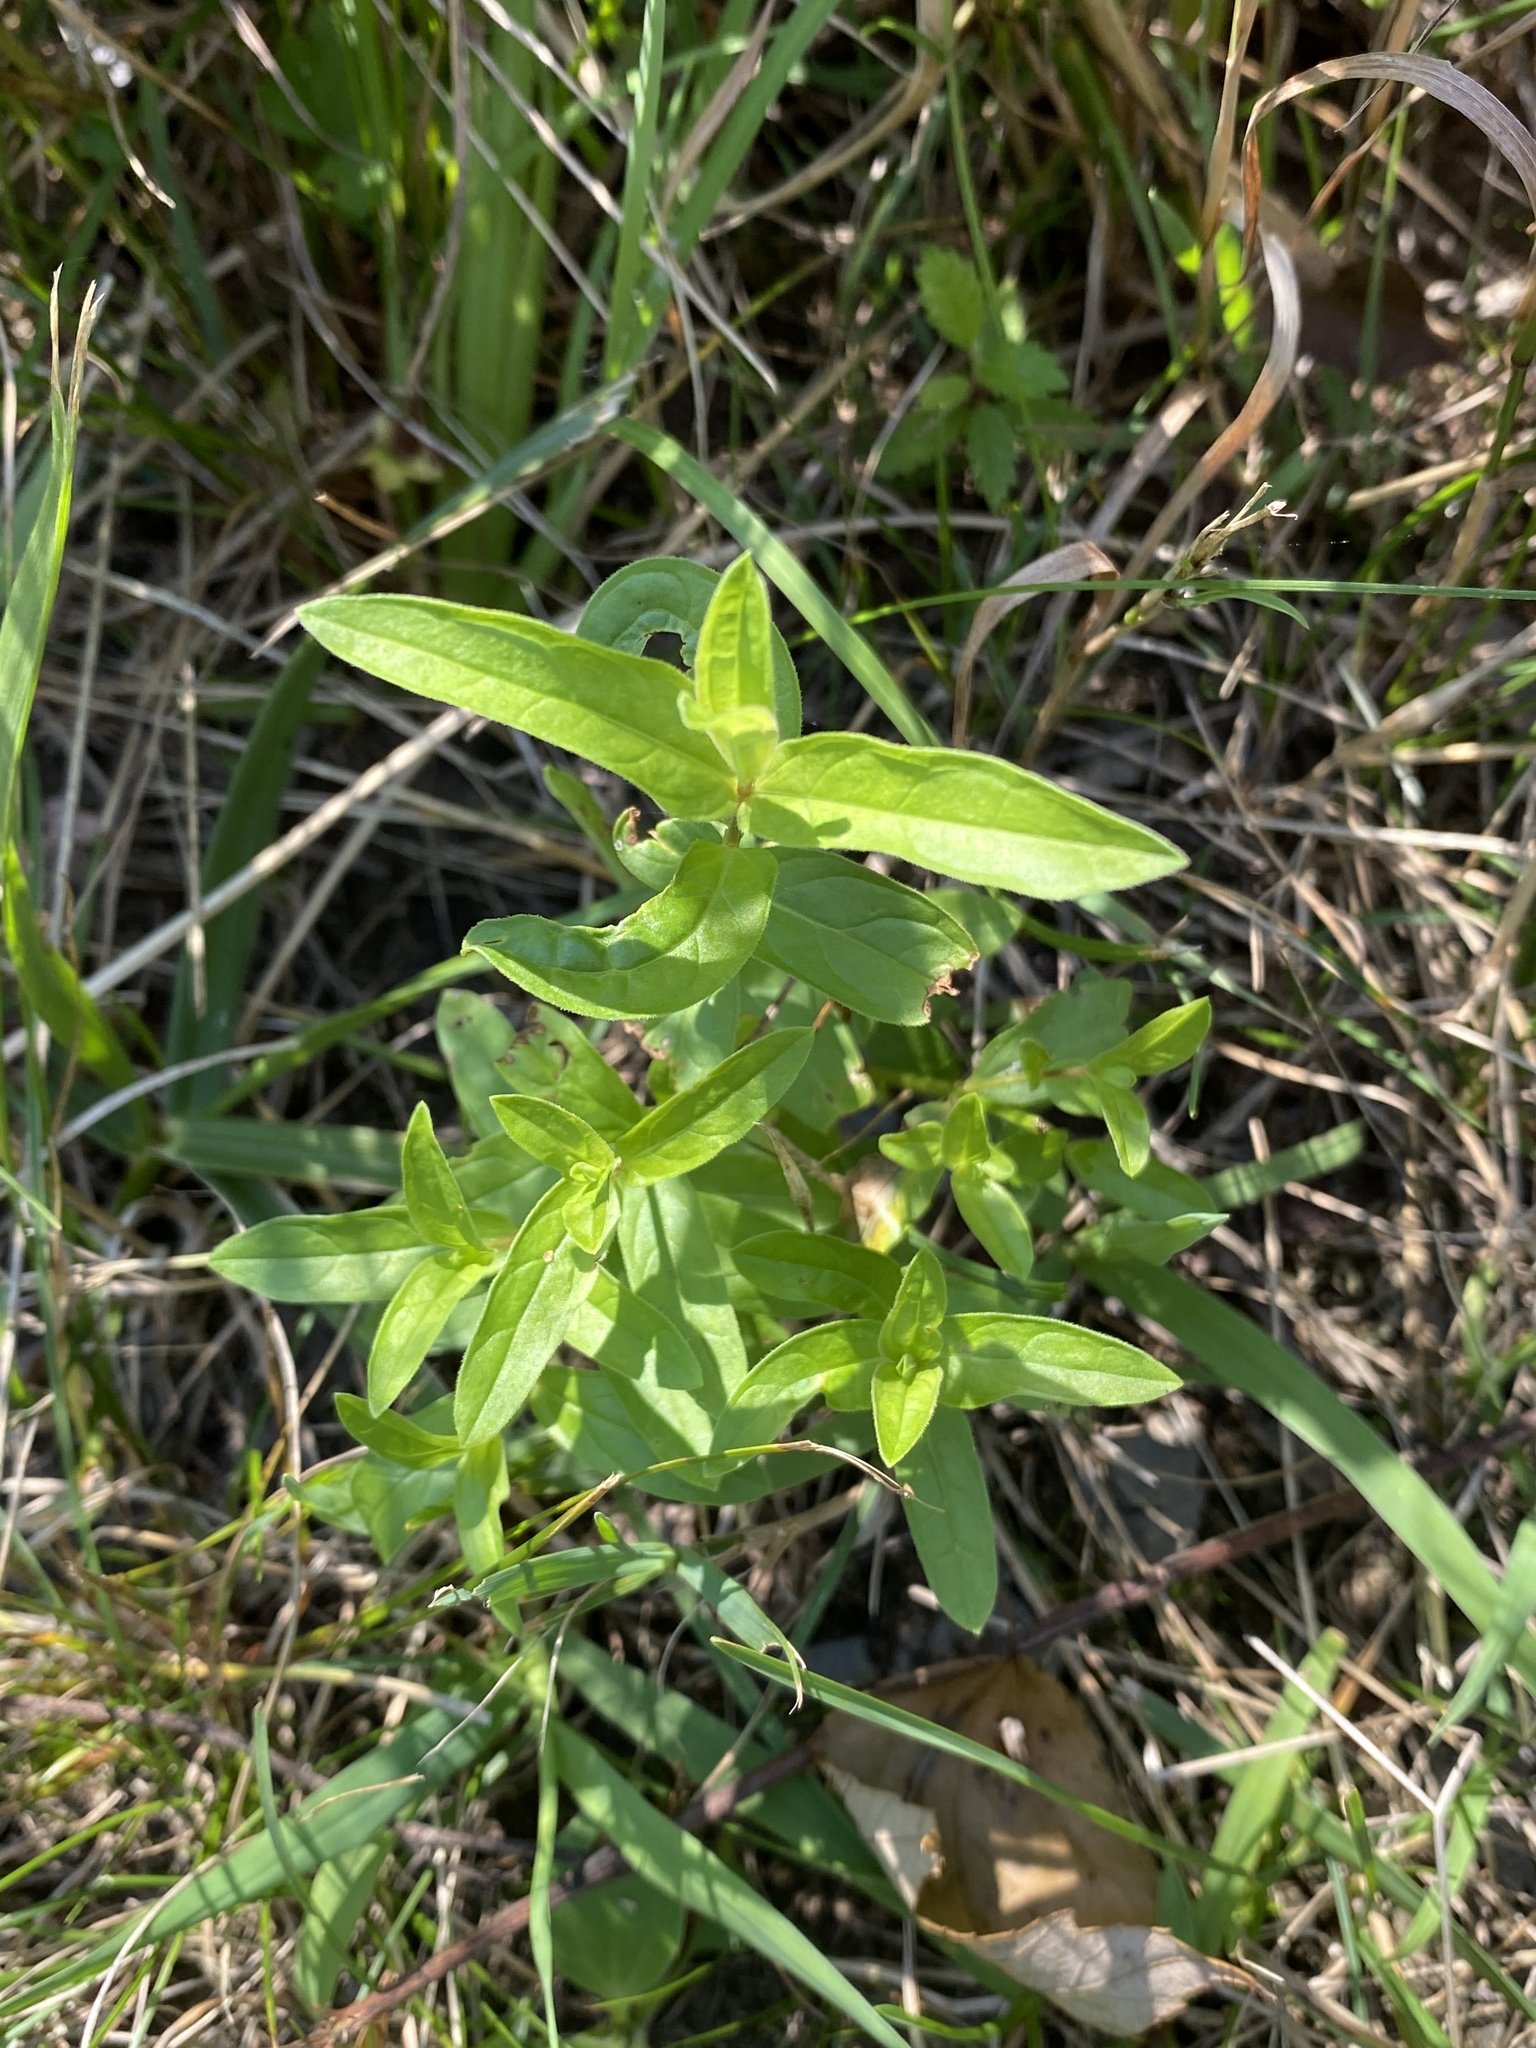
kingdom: Plantae
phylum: Tracheophyta
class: Magnoliopsida
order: Myrtales
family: Lythraceae
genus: Lythrum
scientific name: Lythrum salicaria
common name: Purple loosestrife
